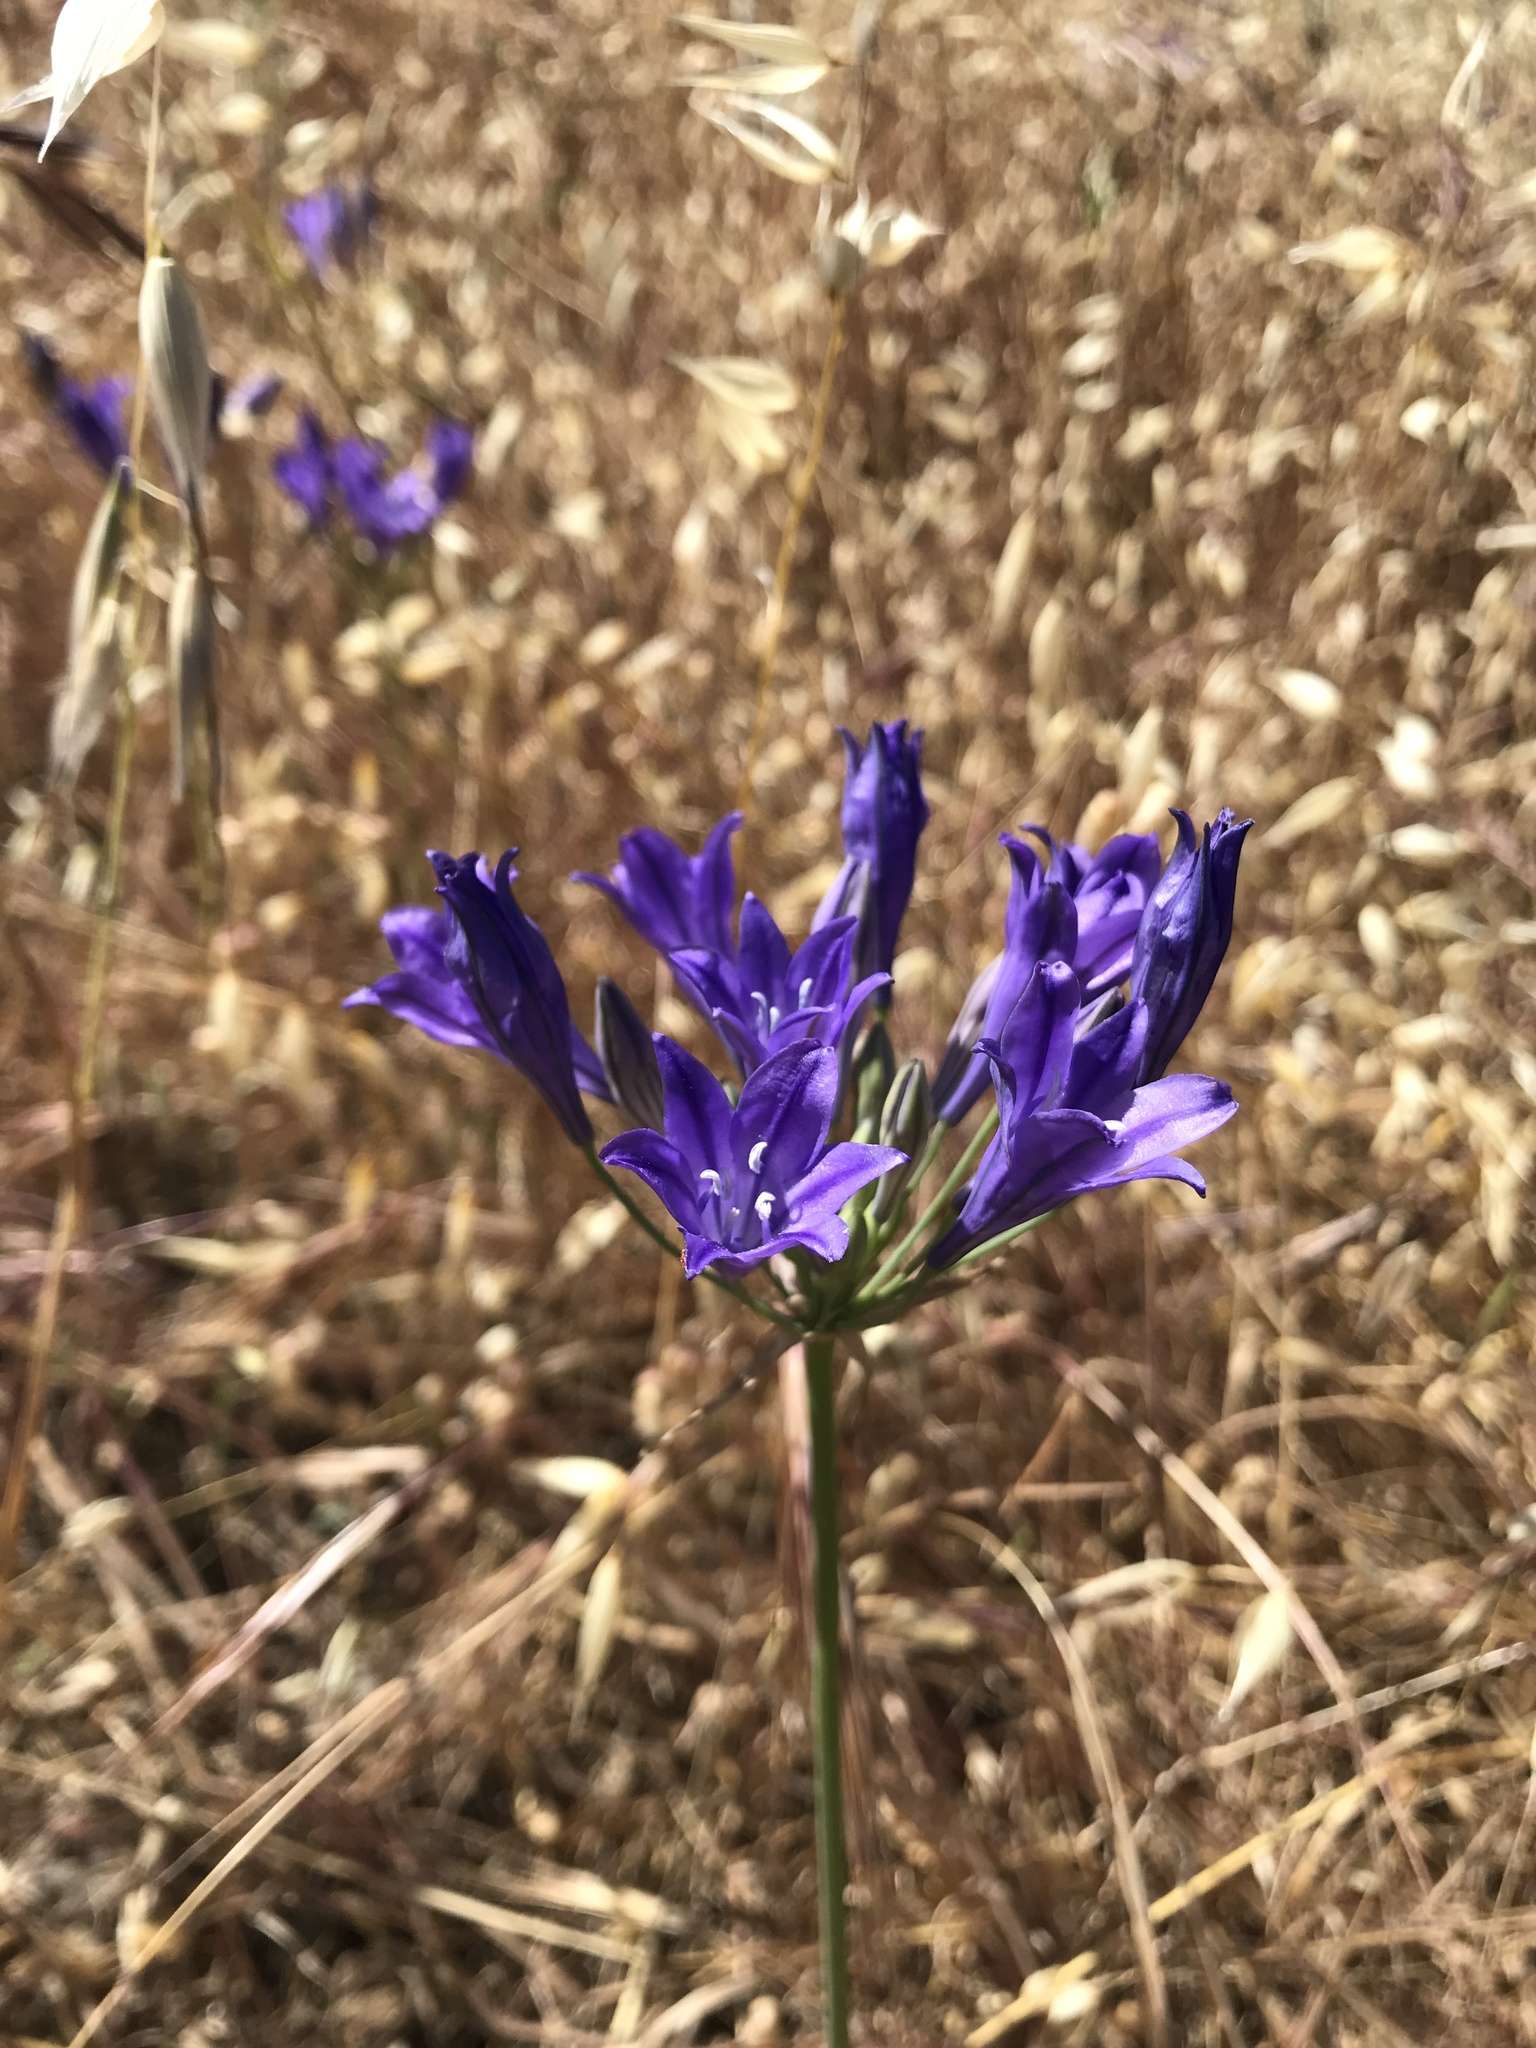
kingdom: Plantae
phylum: Tracheophyta
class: Liliopsida
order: Asparagales
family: Asparagaceae
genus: Triteleia
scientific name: Triteleia laxa
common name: Triplet-lily
